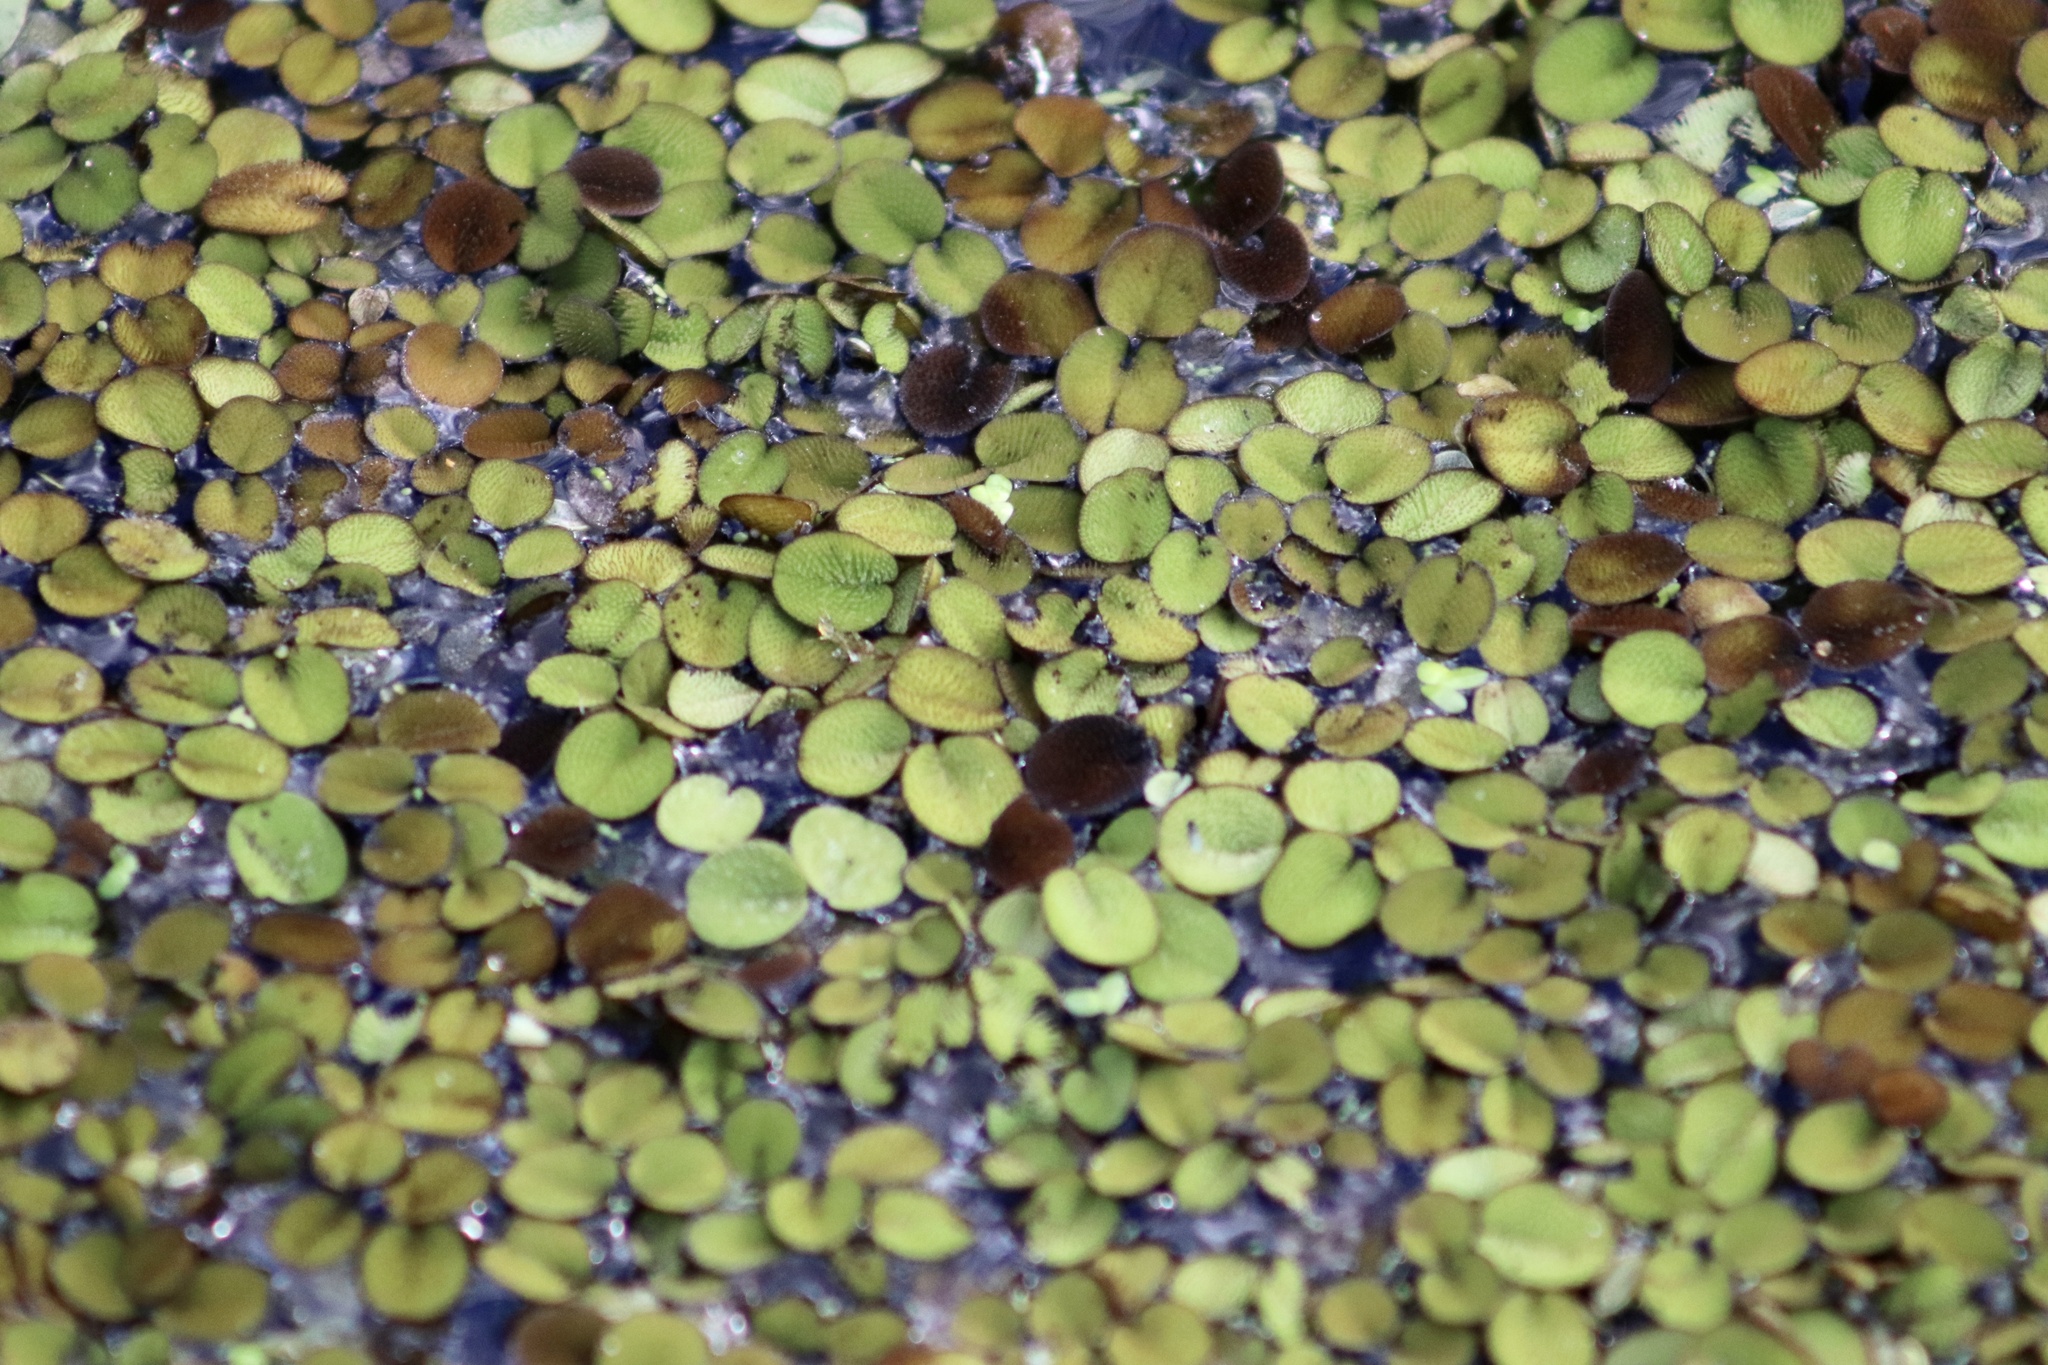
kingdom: Plantae
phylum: Tracheophyta
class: Polypodiopsida
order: Salviniales
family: Salviniaceae
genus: Salvinia
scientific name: Salvinia minima
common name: Water spangles
